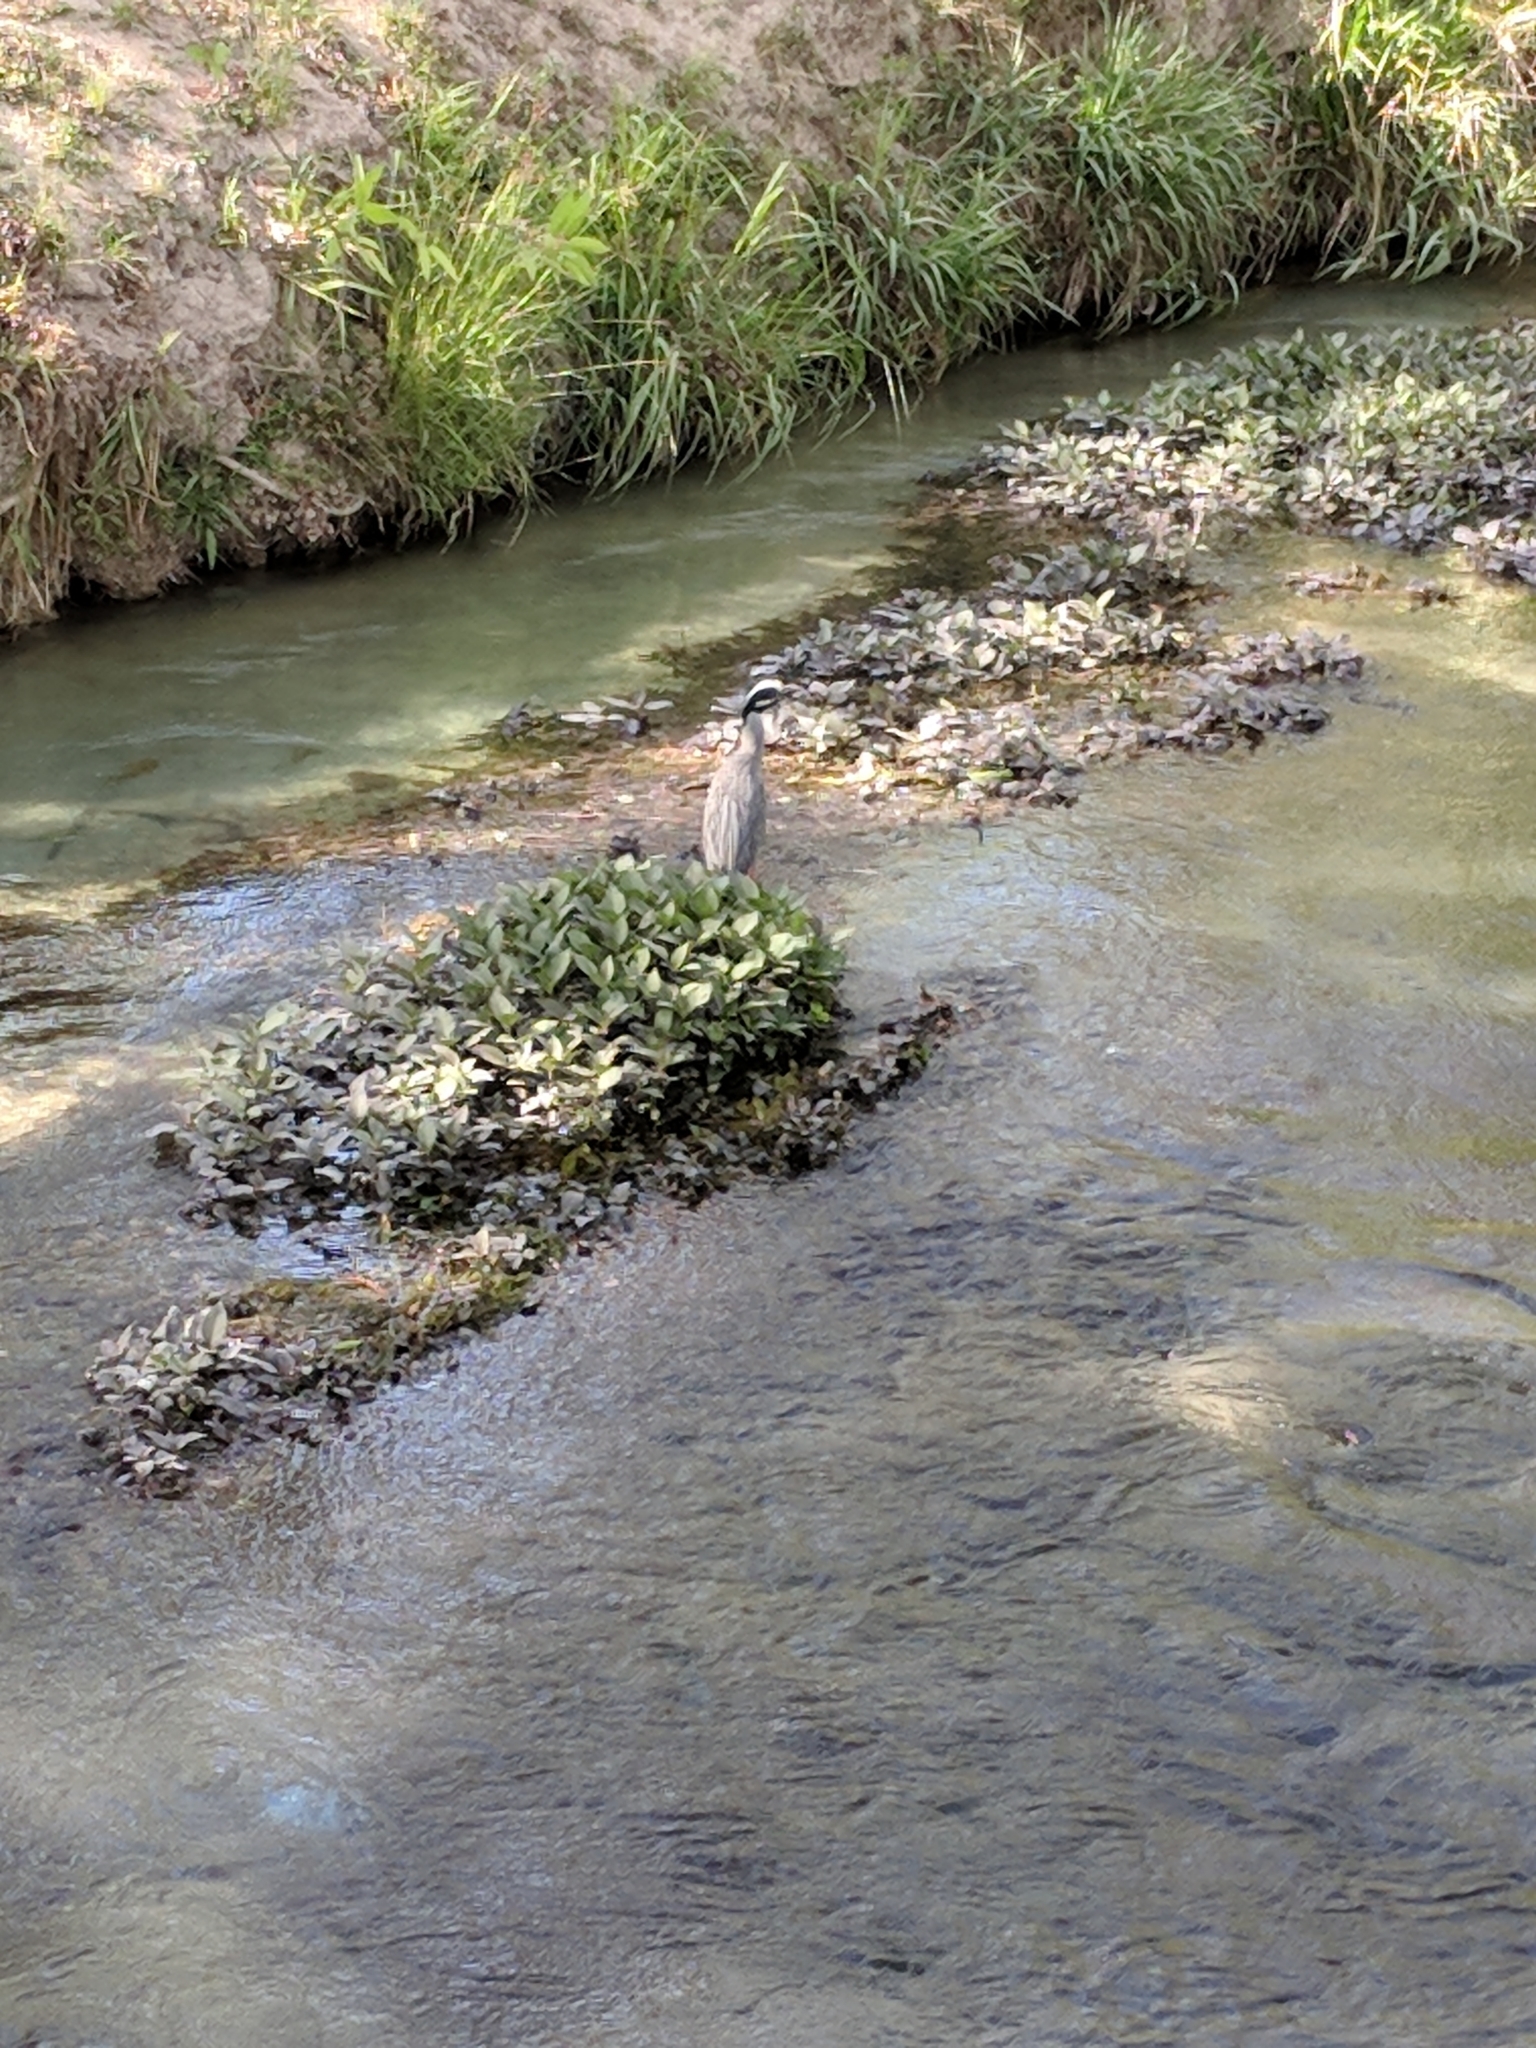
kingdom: Animalia
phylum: Chordata
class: Aves
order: Pelecaniformes
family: Ardeidae
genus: Nyctanassa
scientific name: Nyctanassa violacea
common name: Yellow-crowned night heron
